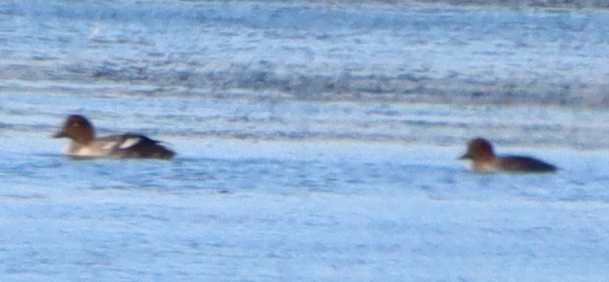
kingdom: Animalia
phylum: Chordata
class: Aves
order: Anseriformes
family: Anatidae
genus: Bucephala
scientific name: Bucephala clangula
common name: Common goldeneye
